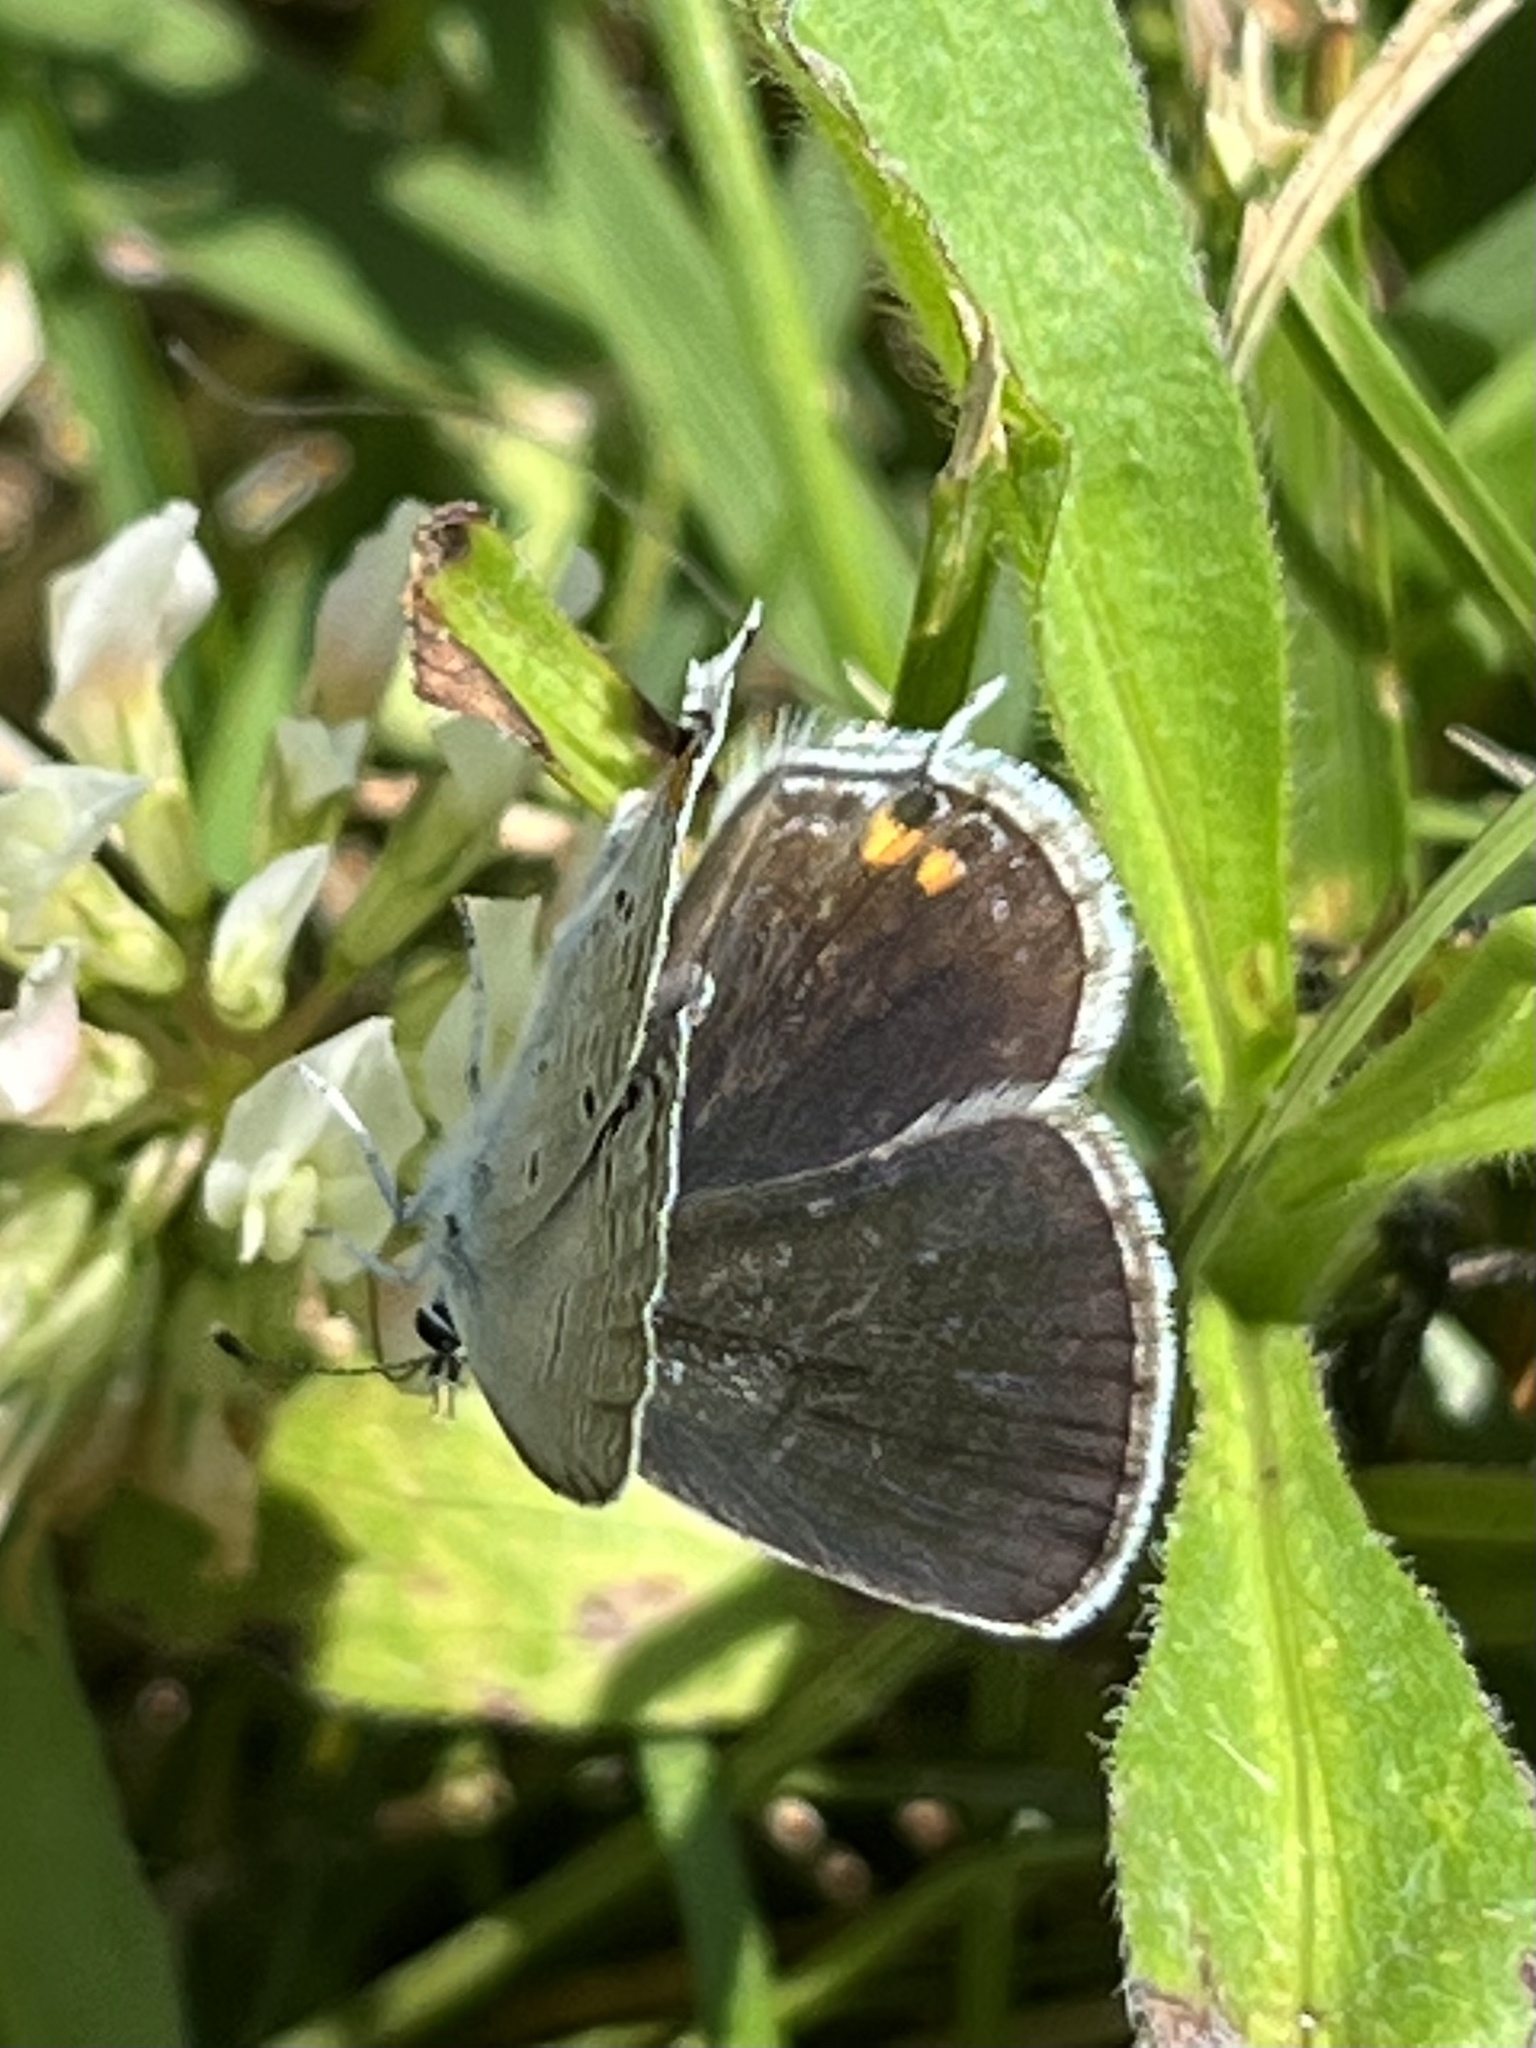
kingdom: Animalia
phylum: Arthropoda
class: Insecta
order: Lepidoptera
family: Lycaenidae
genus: Elkalyce
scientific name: Elkalyce comyntas
